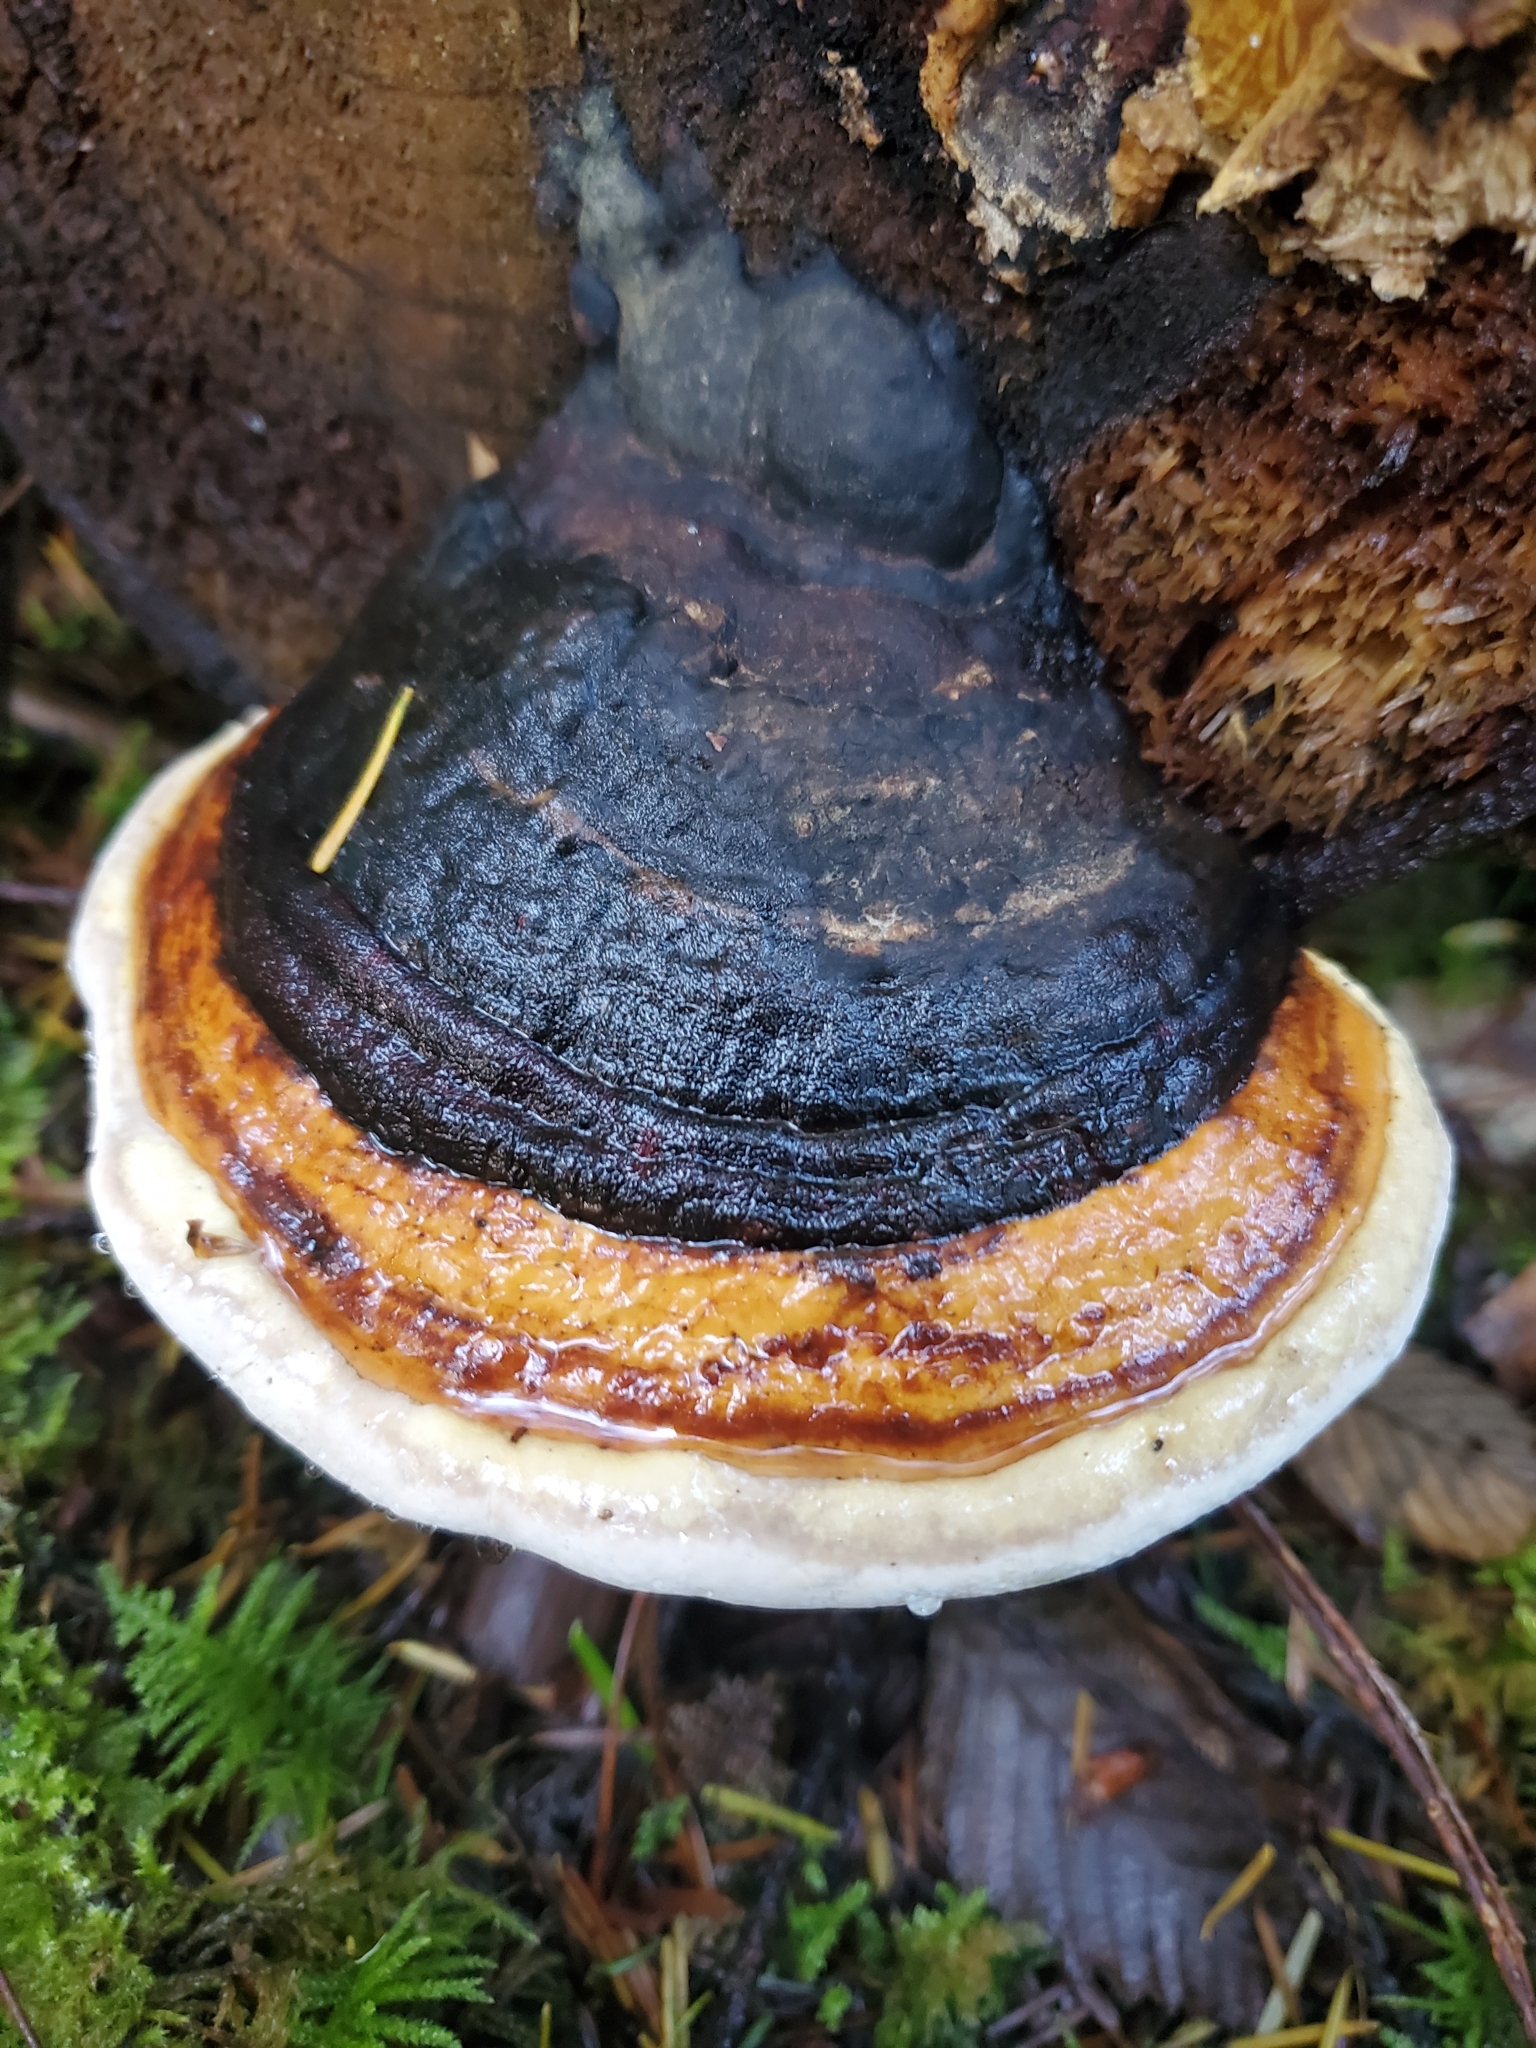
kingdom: Fungi
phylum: Basidiomycota
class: Agaricomycetes
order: Polyporales
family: Fomitopsidaceae
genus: Fomitopsis
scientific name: Fomitopsis mounceae
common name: Northern red belt
